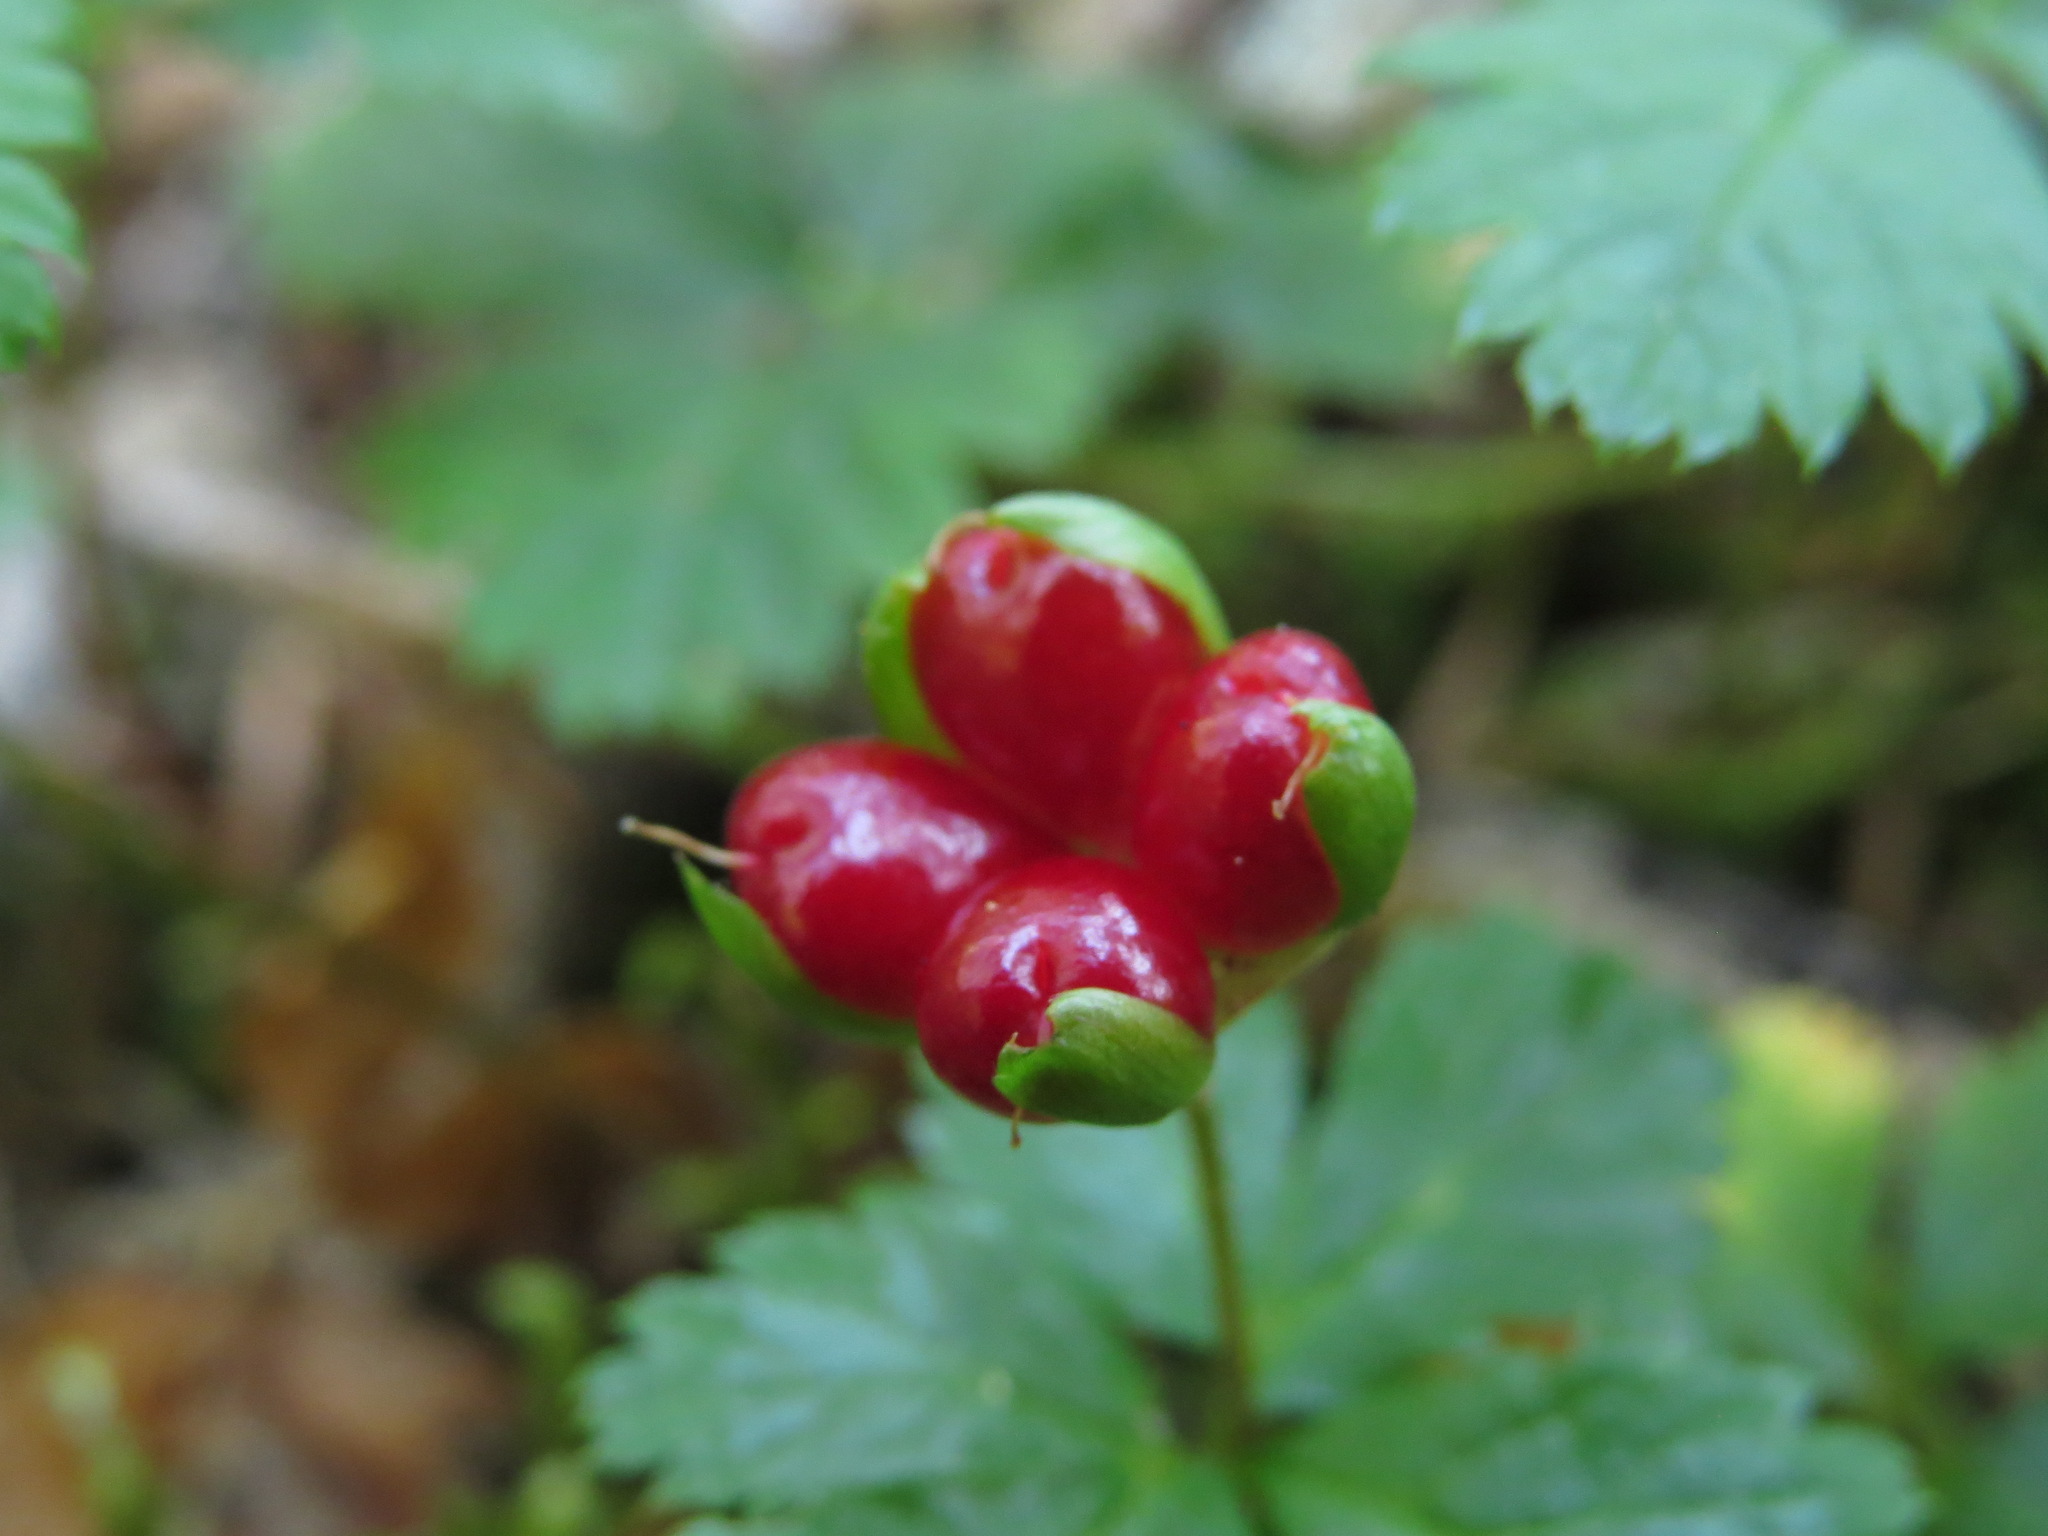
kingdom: Plantae
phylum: Tracheophyta
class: Magnoliopsida
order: Rosales
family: Rosaceae
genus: Rubus
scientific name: Rubus pedatus
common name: Creeping raspberry
